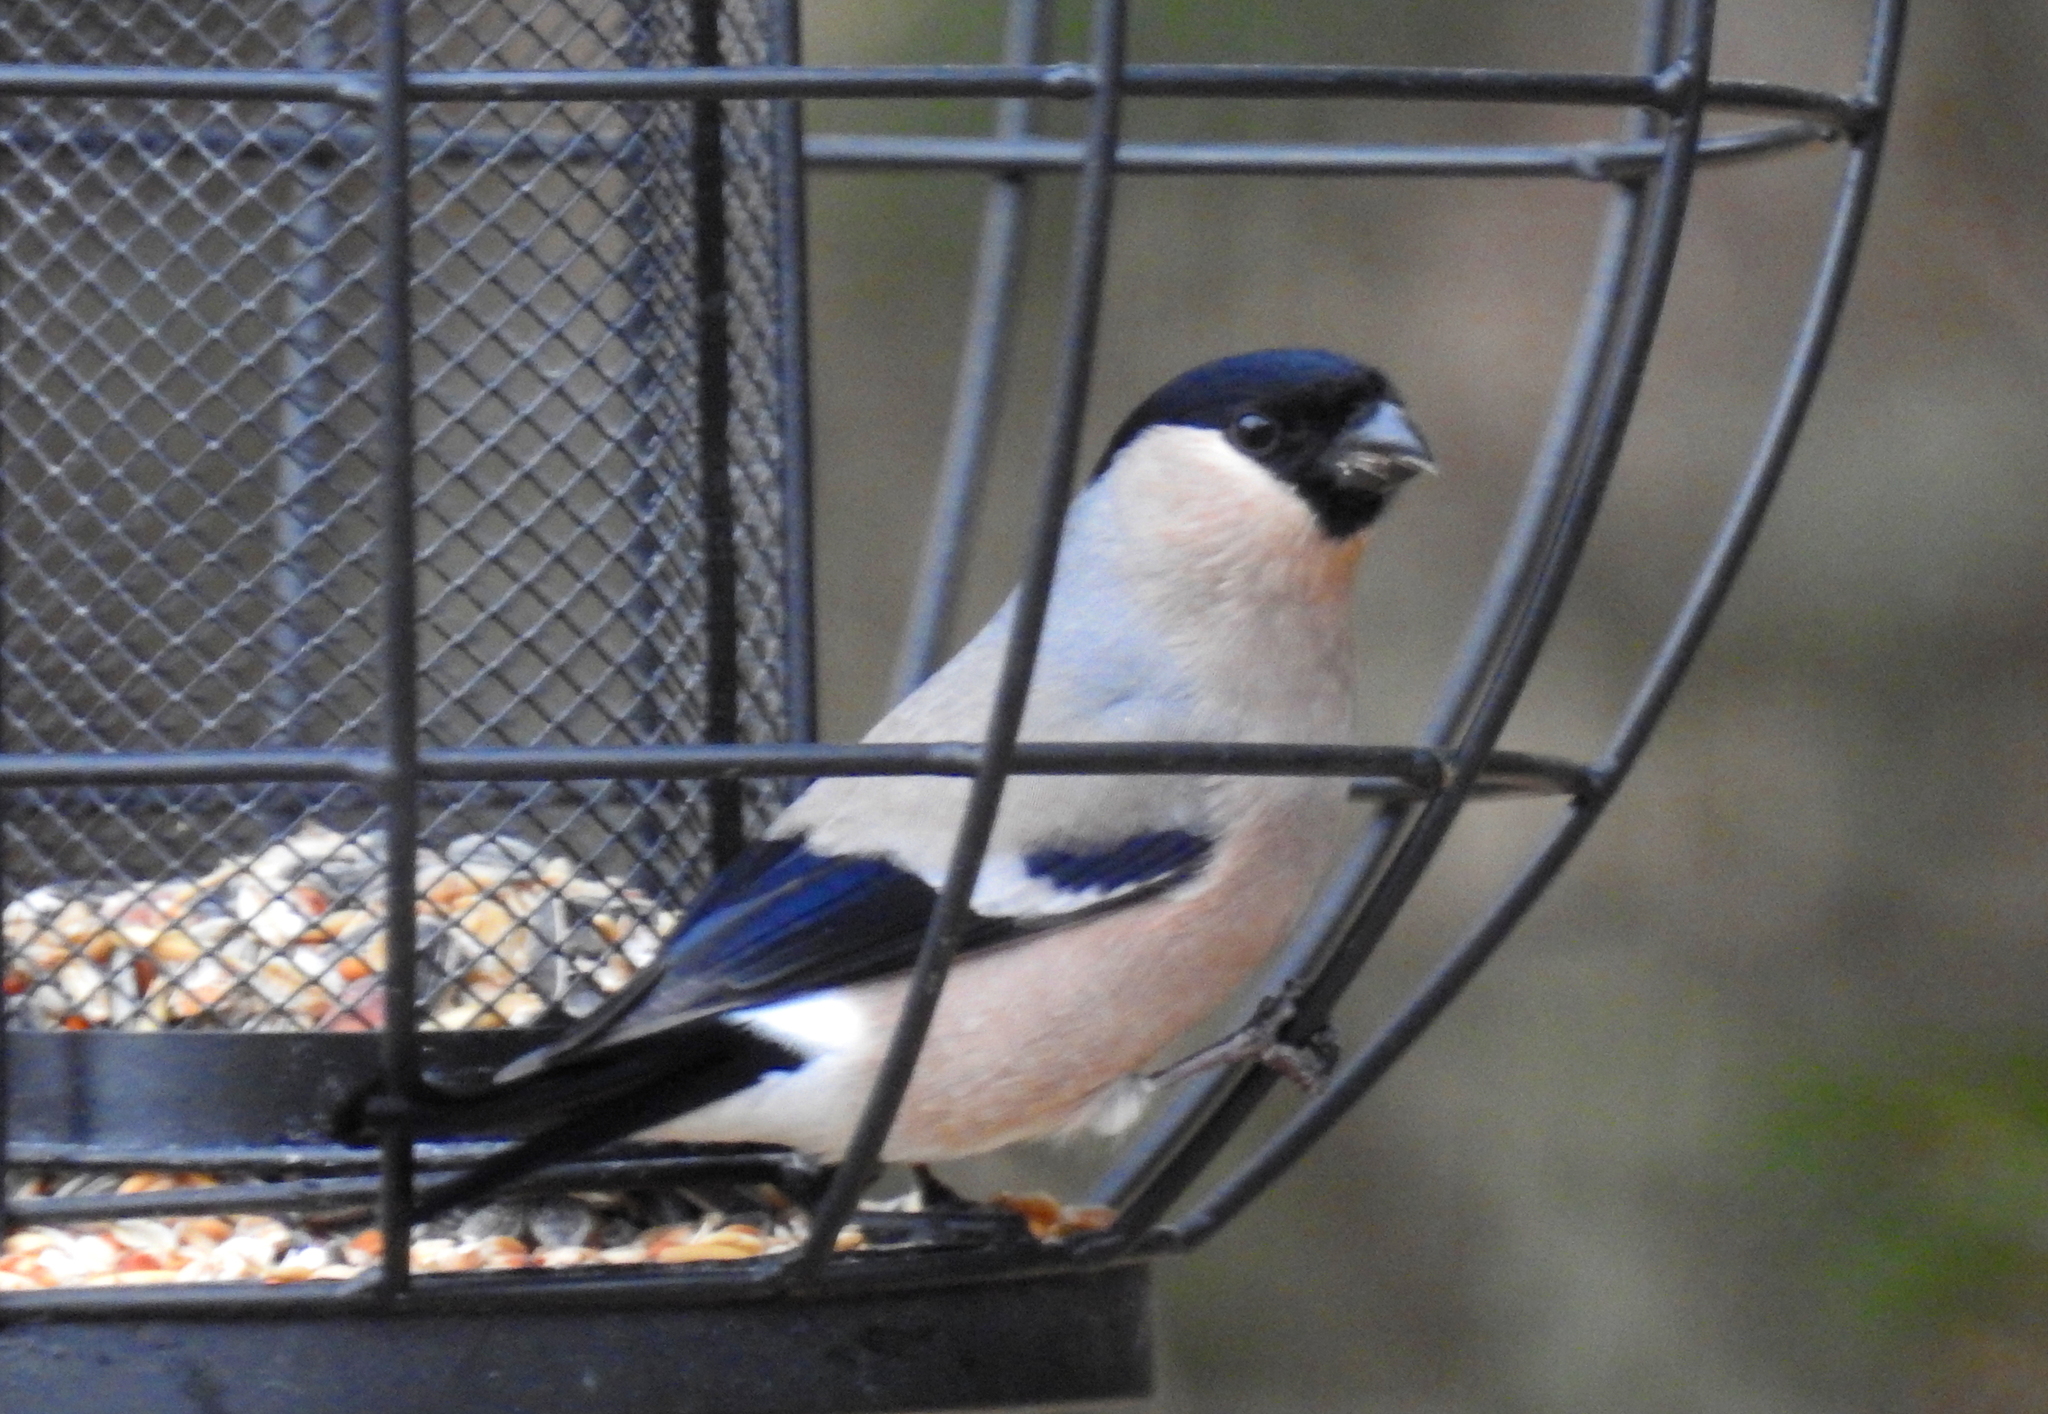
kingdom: Animalia
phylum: Chordata
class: Aves
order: Passeriformes
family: Fringillidae
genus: Pyrrhula
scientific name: Pyrrhula pyrrhula
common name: Eurasian bullfinch
